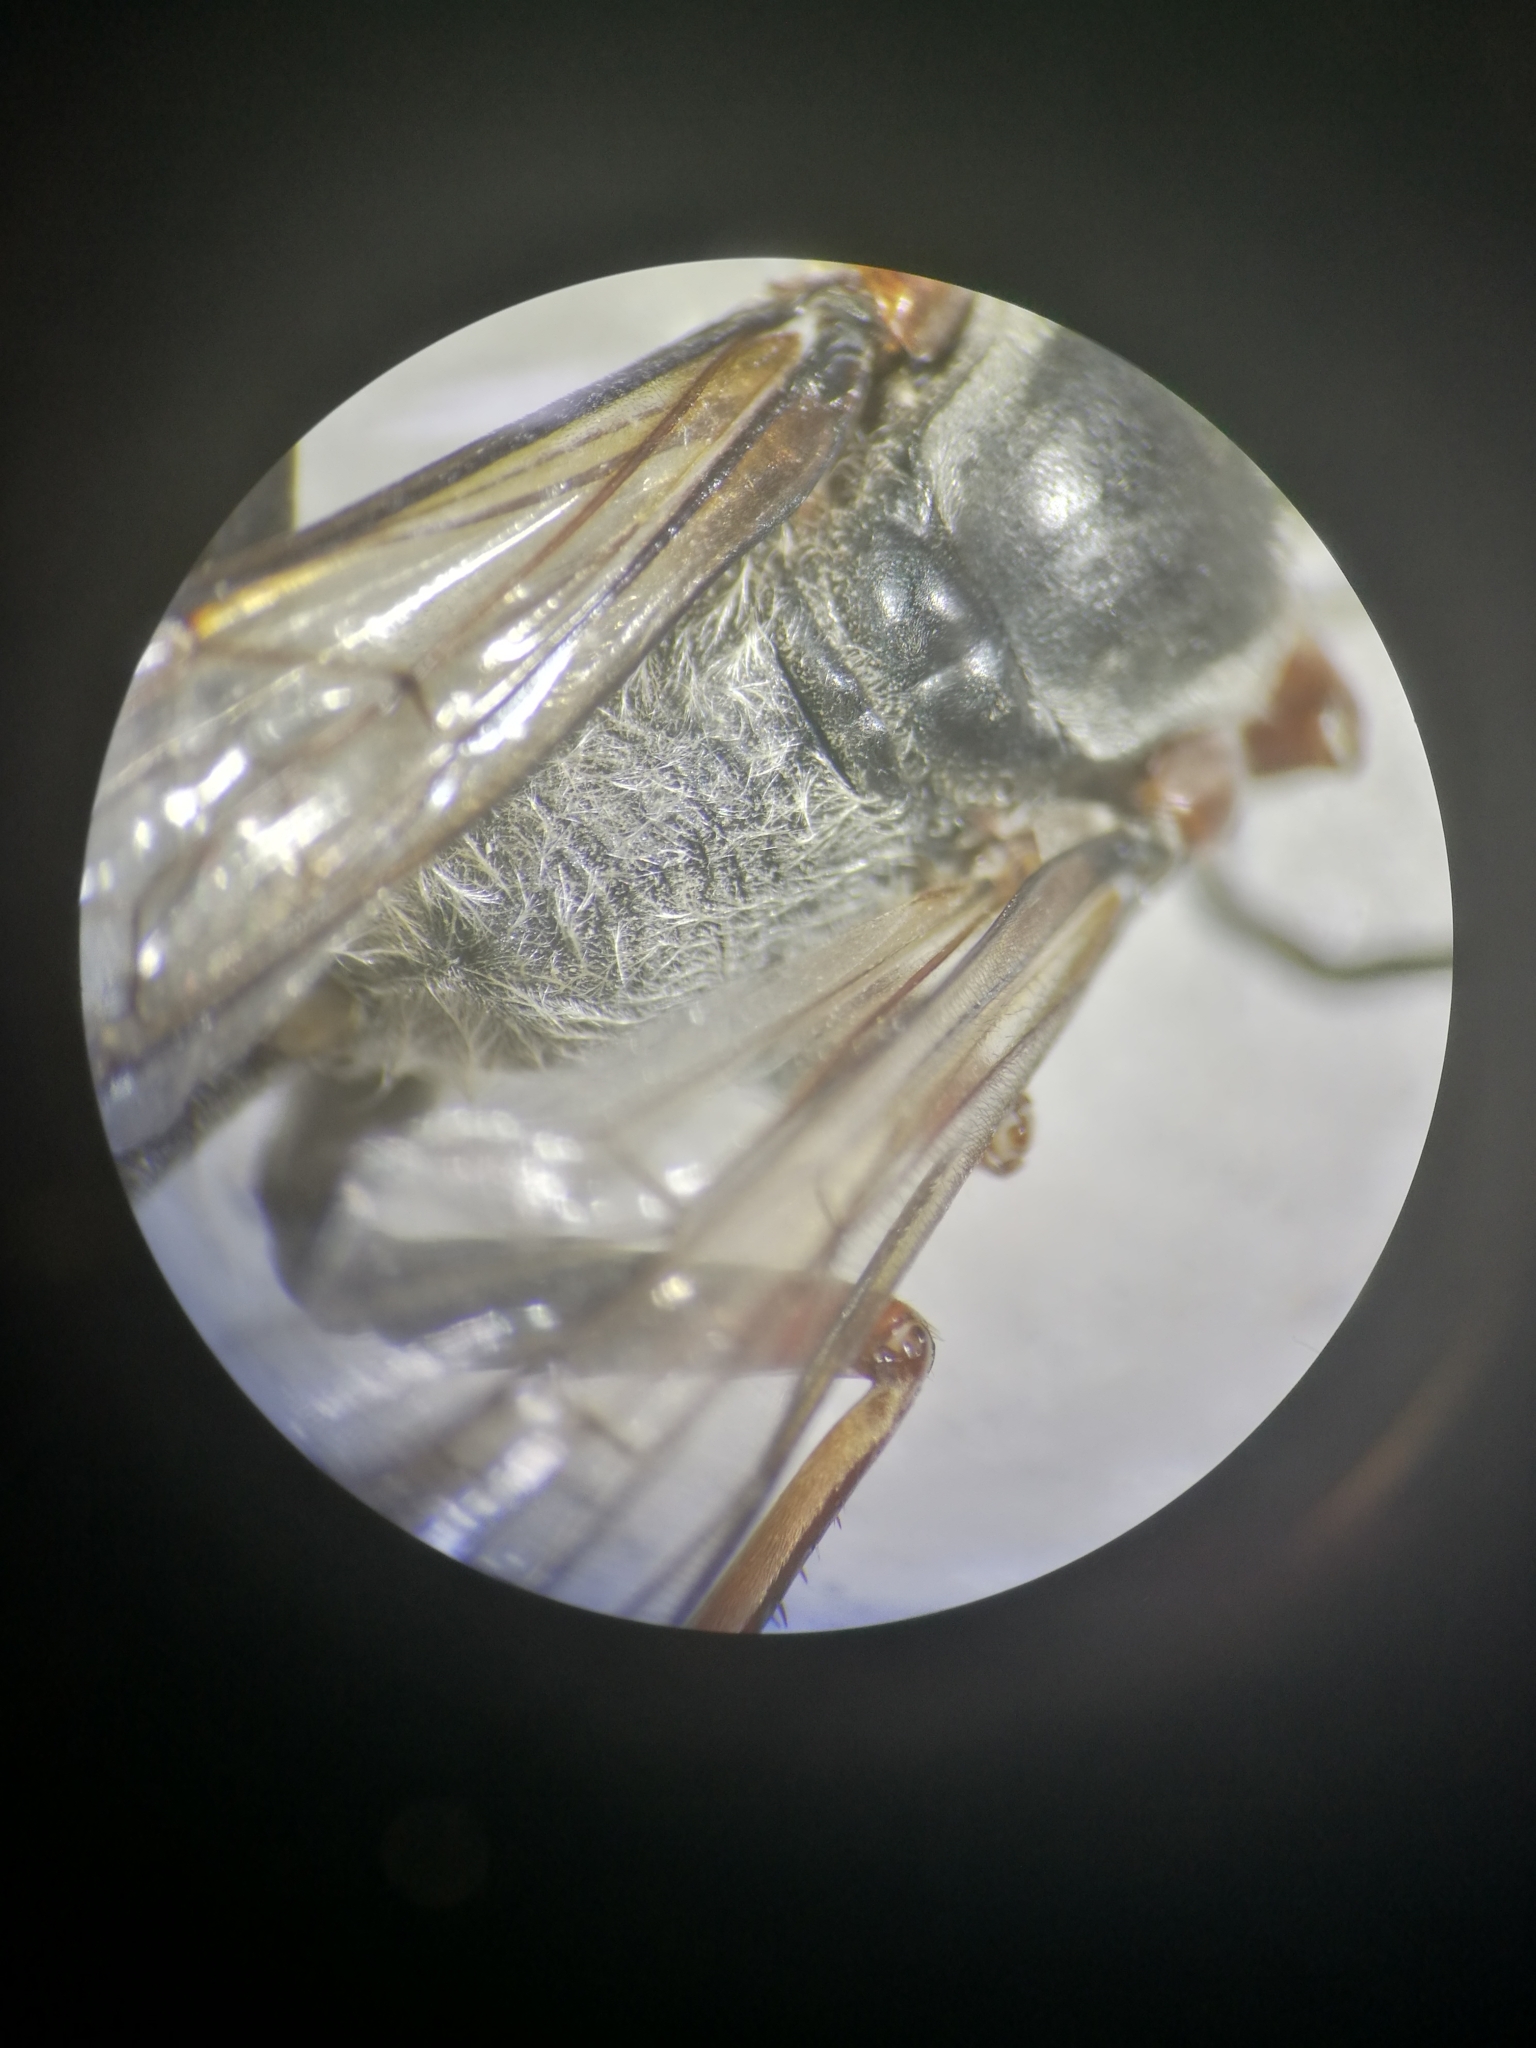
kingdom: Animalia
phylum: Arthropoda
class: Insecta
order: Hymenoptera
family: Sphecidae
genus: Sphex
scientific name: Sphex pruinosus
